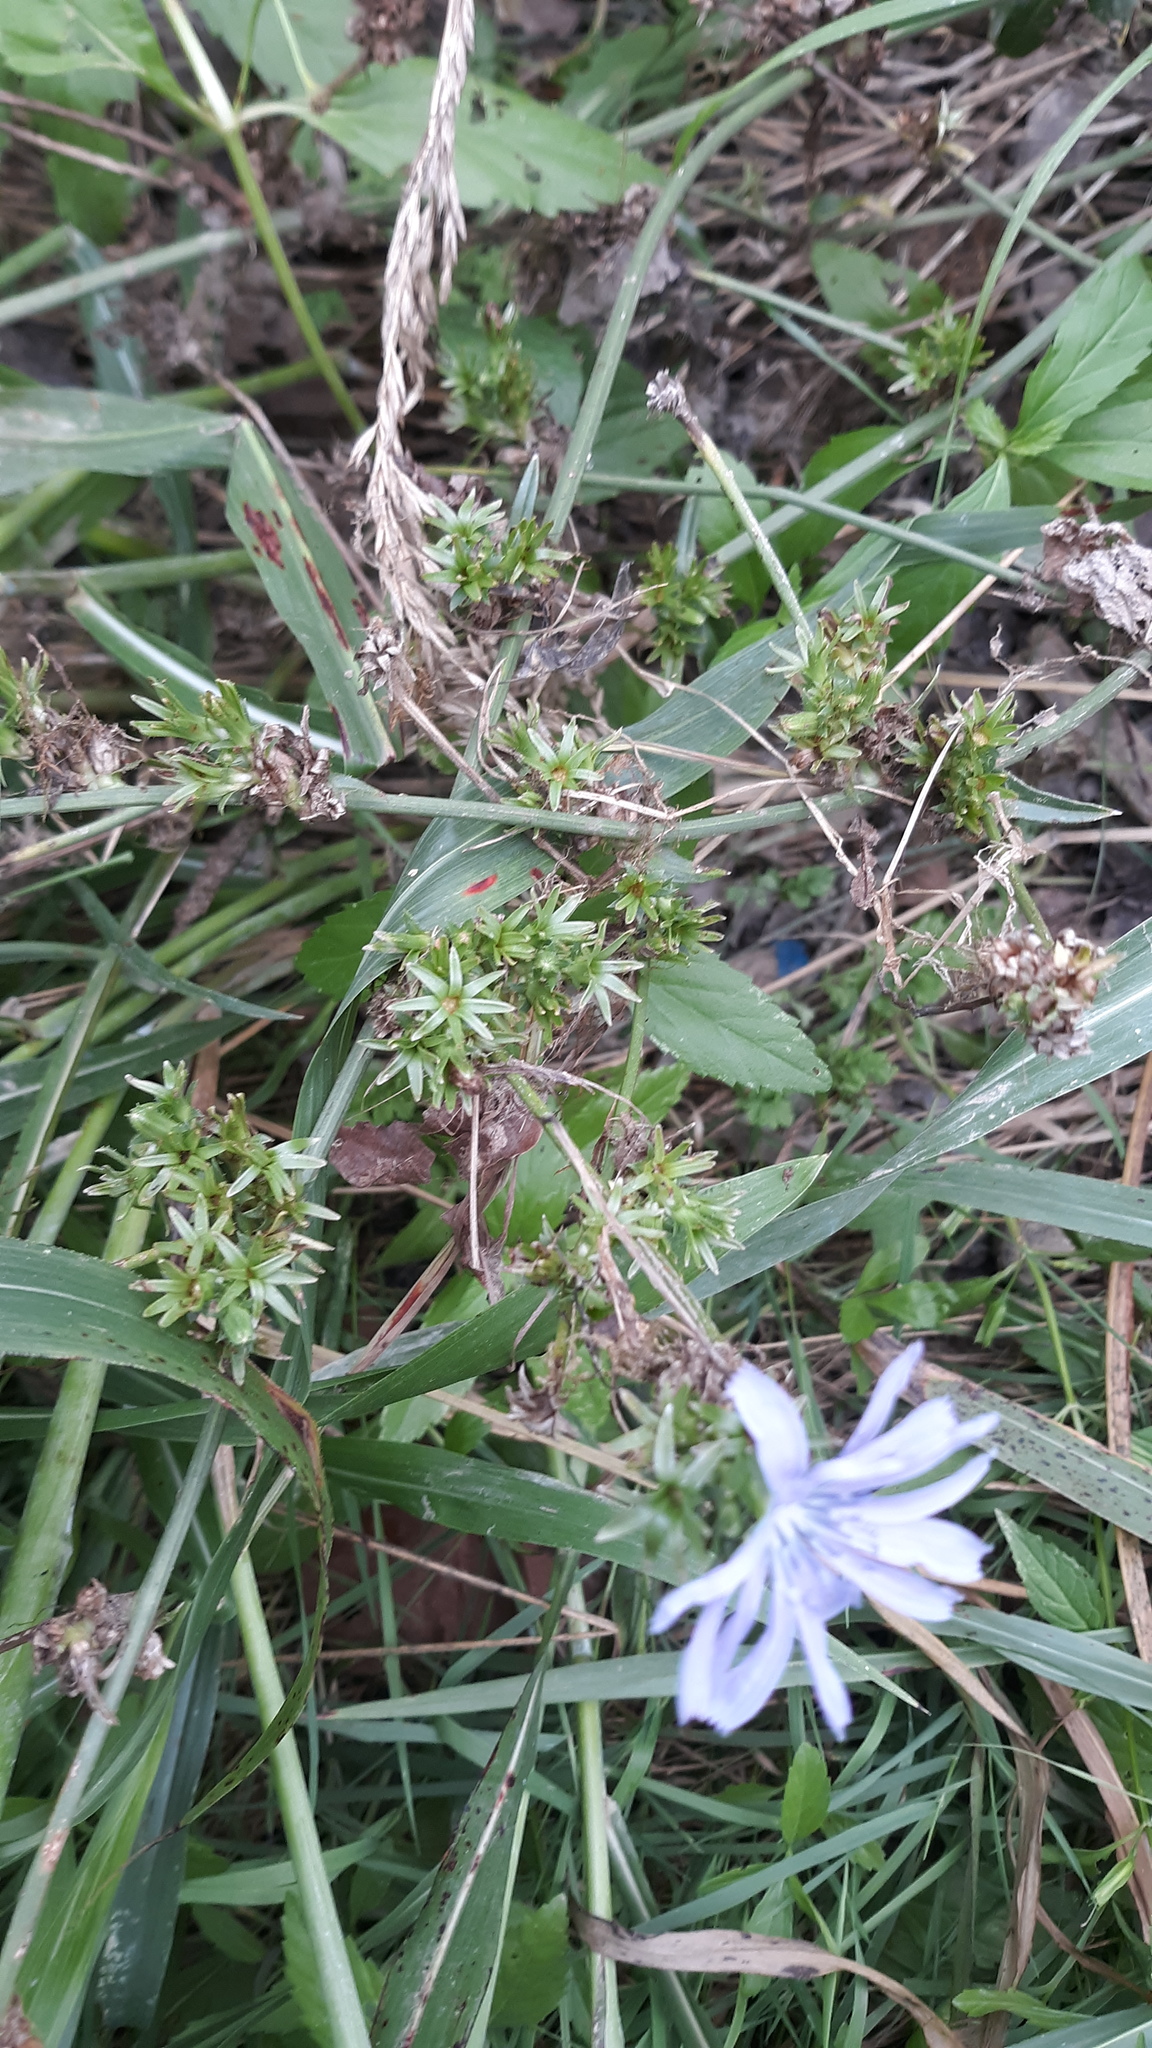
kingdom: Plantae
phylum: Tracheophyta
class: Magnoliopsida
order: Asterales
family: Asteraceae
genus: Cichorium
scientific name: Cichorium intybus
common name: Chicory
